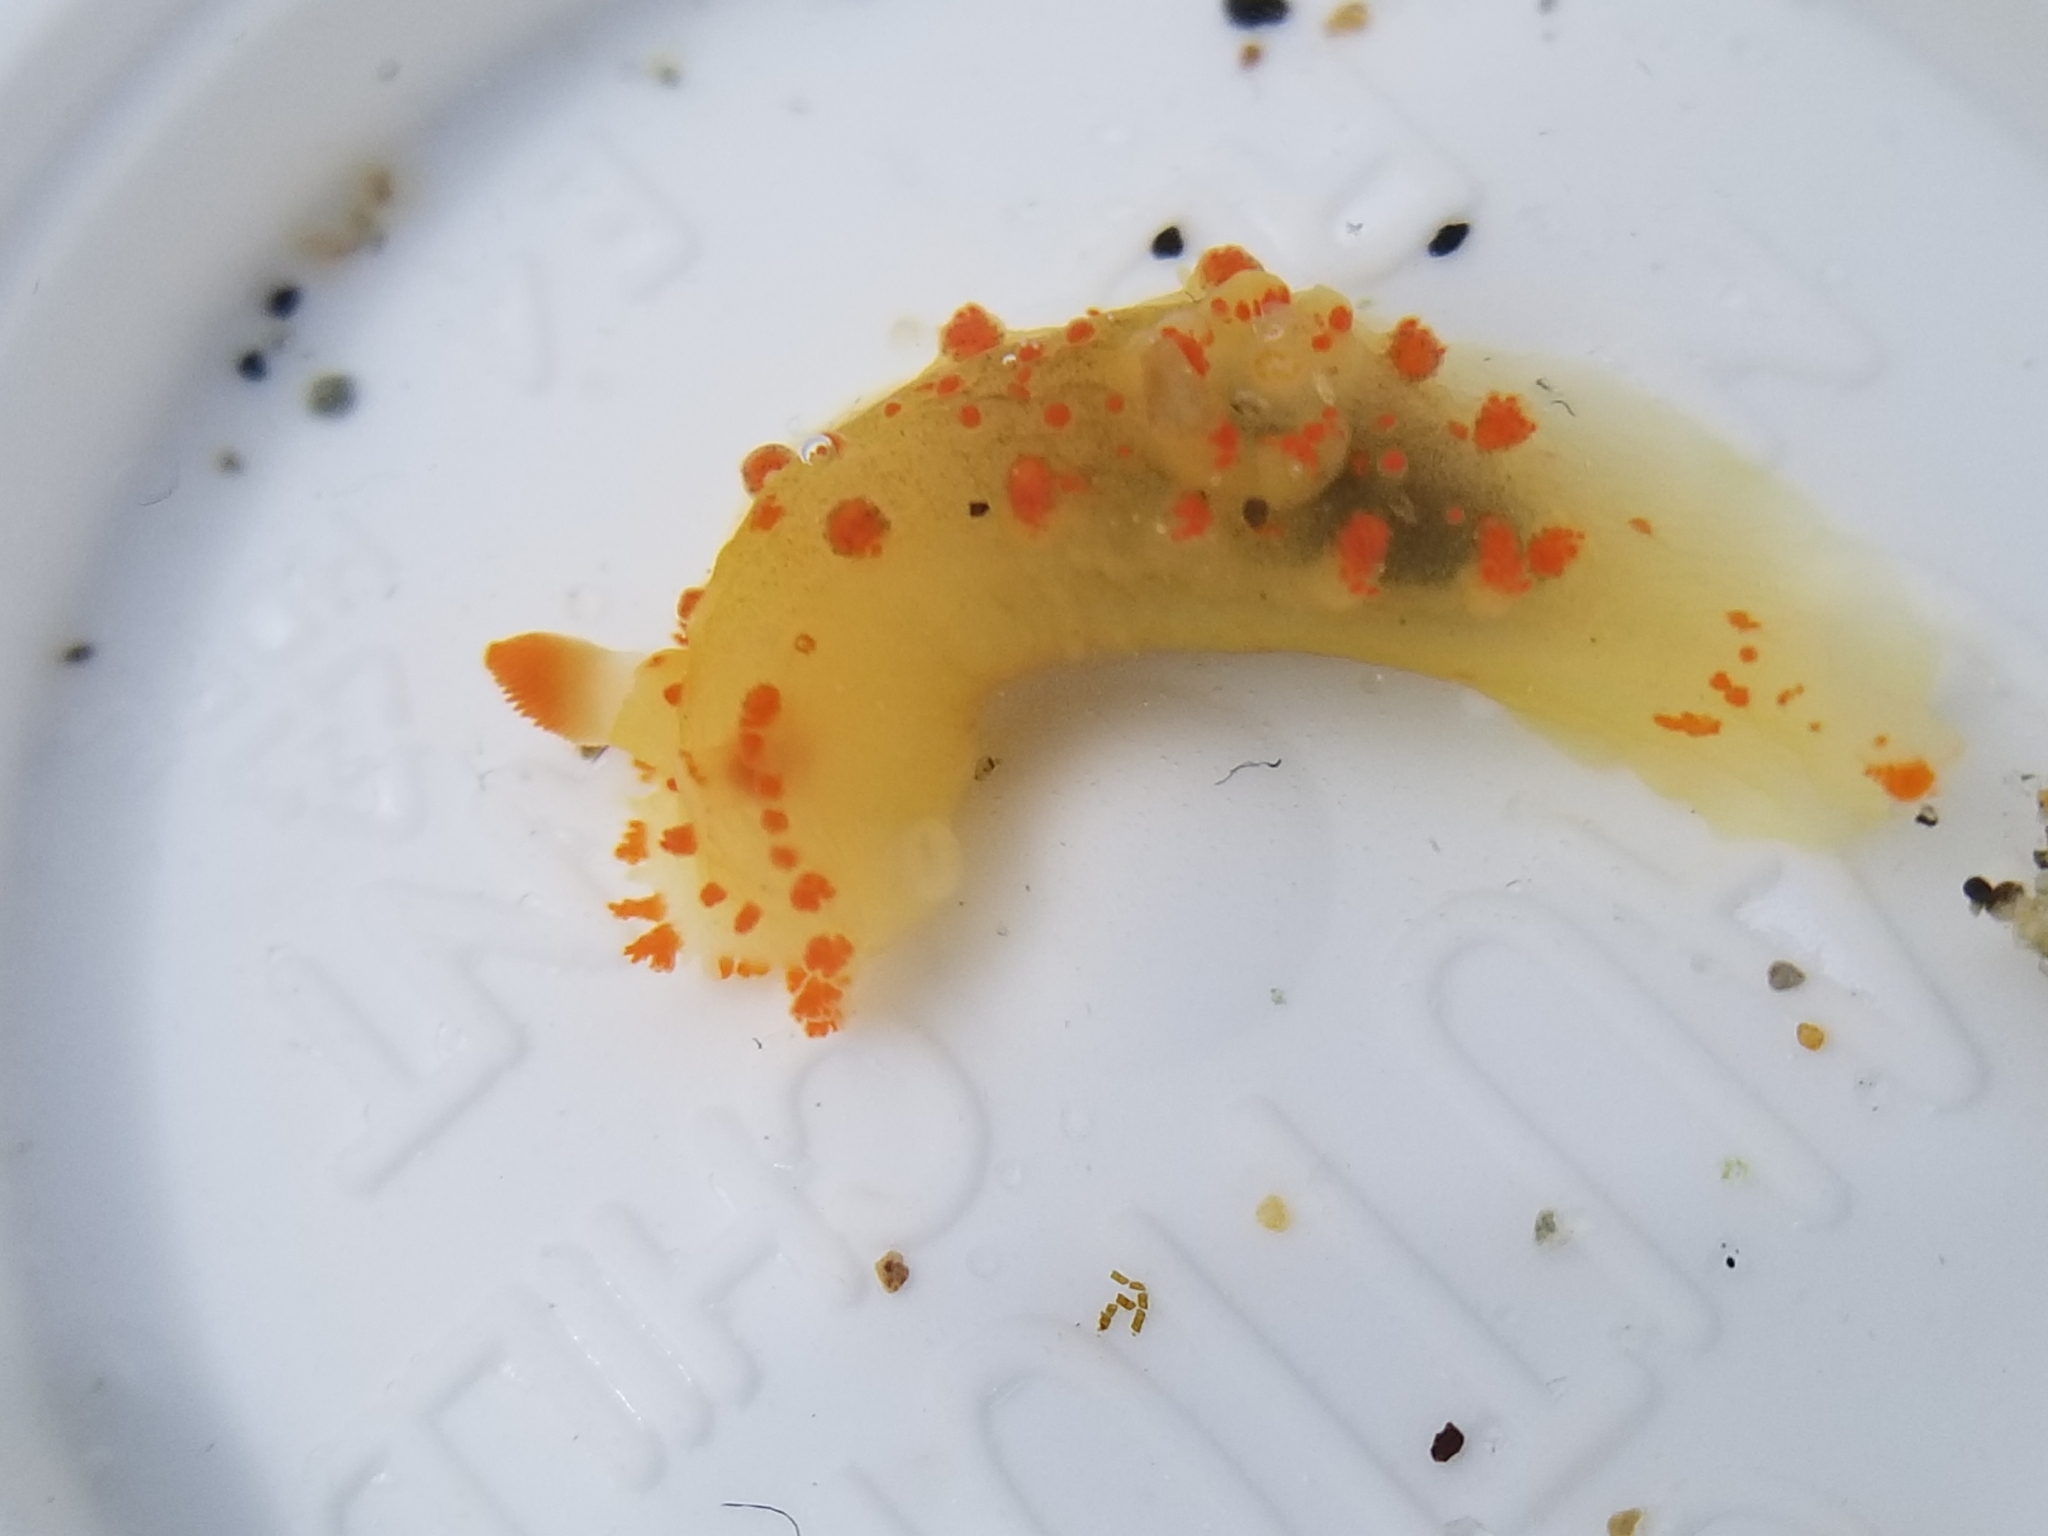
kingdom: Animalia
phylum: Mollusca
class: Gastropoda
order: Nudibranchia
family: Polyceridae
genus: Triopha
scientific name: Triopha catalinae
